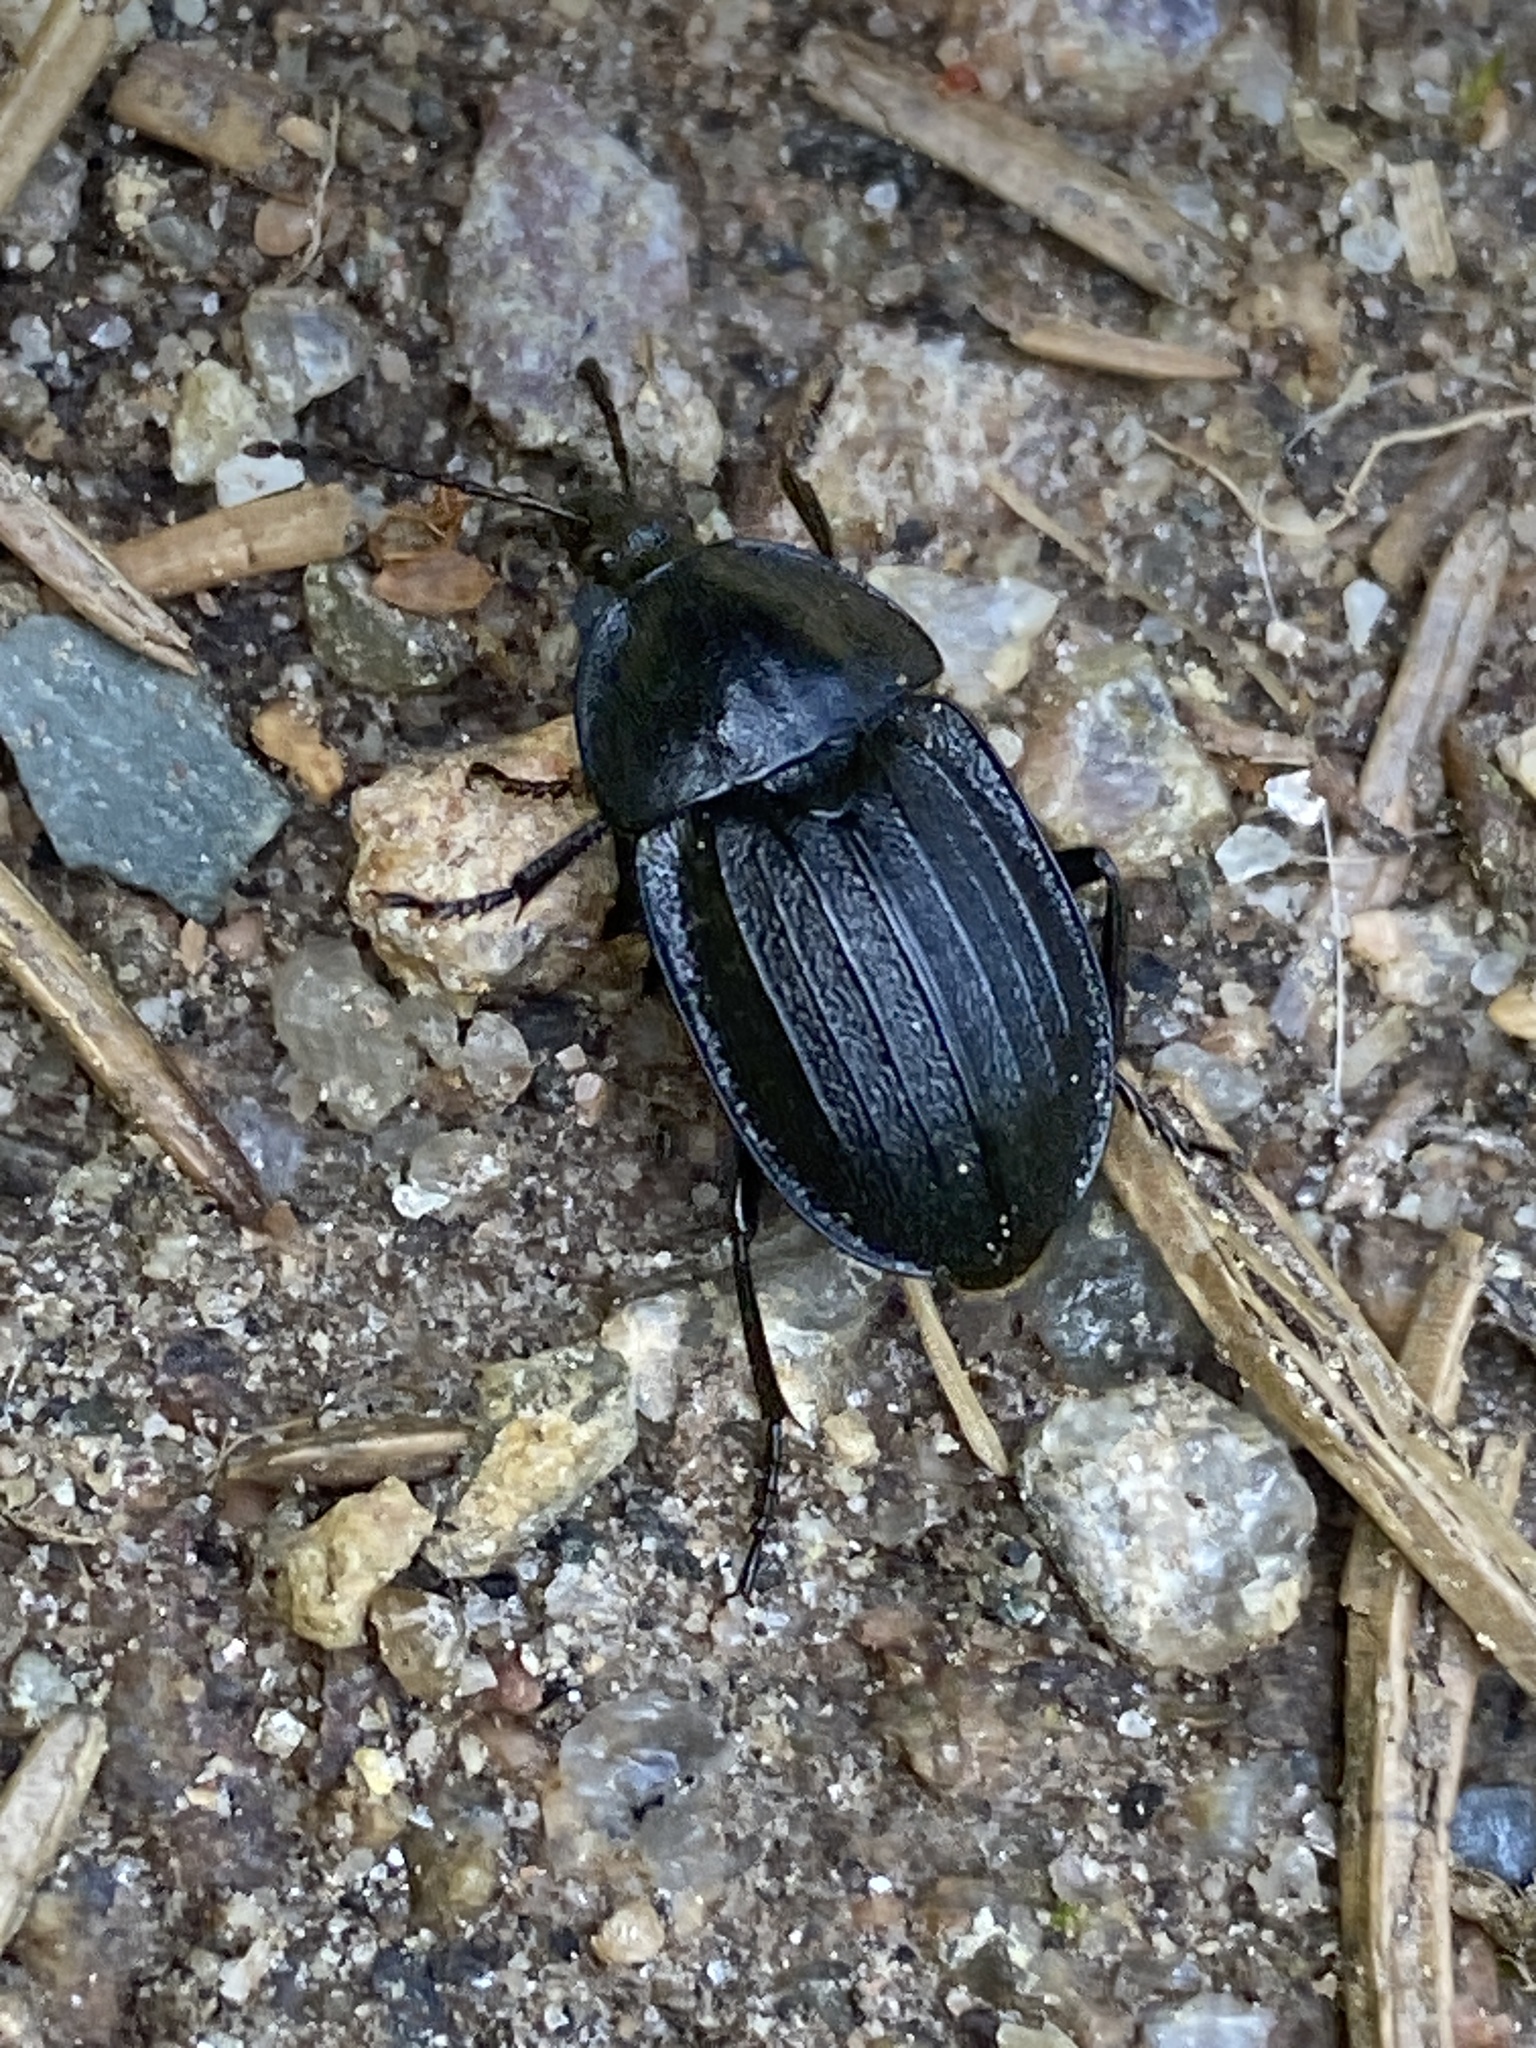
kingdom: Animalia
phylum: Arthropoda
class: Insecta
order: Coleoptera
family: Staphylinidae
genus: Silpha
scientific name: Silpha atrata
